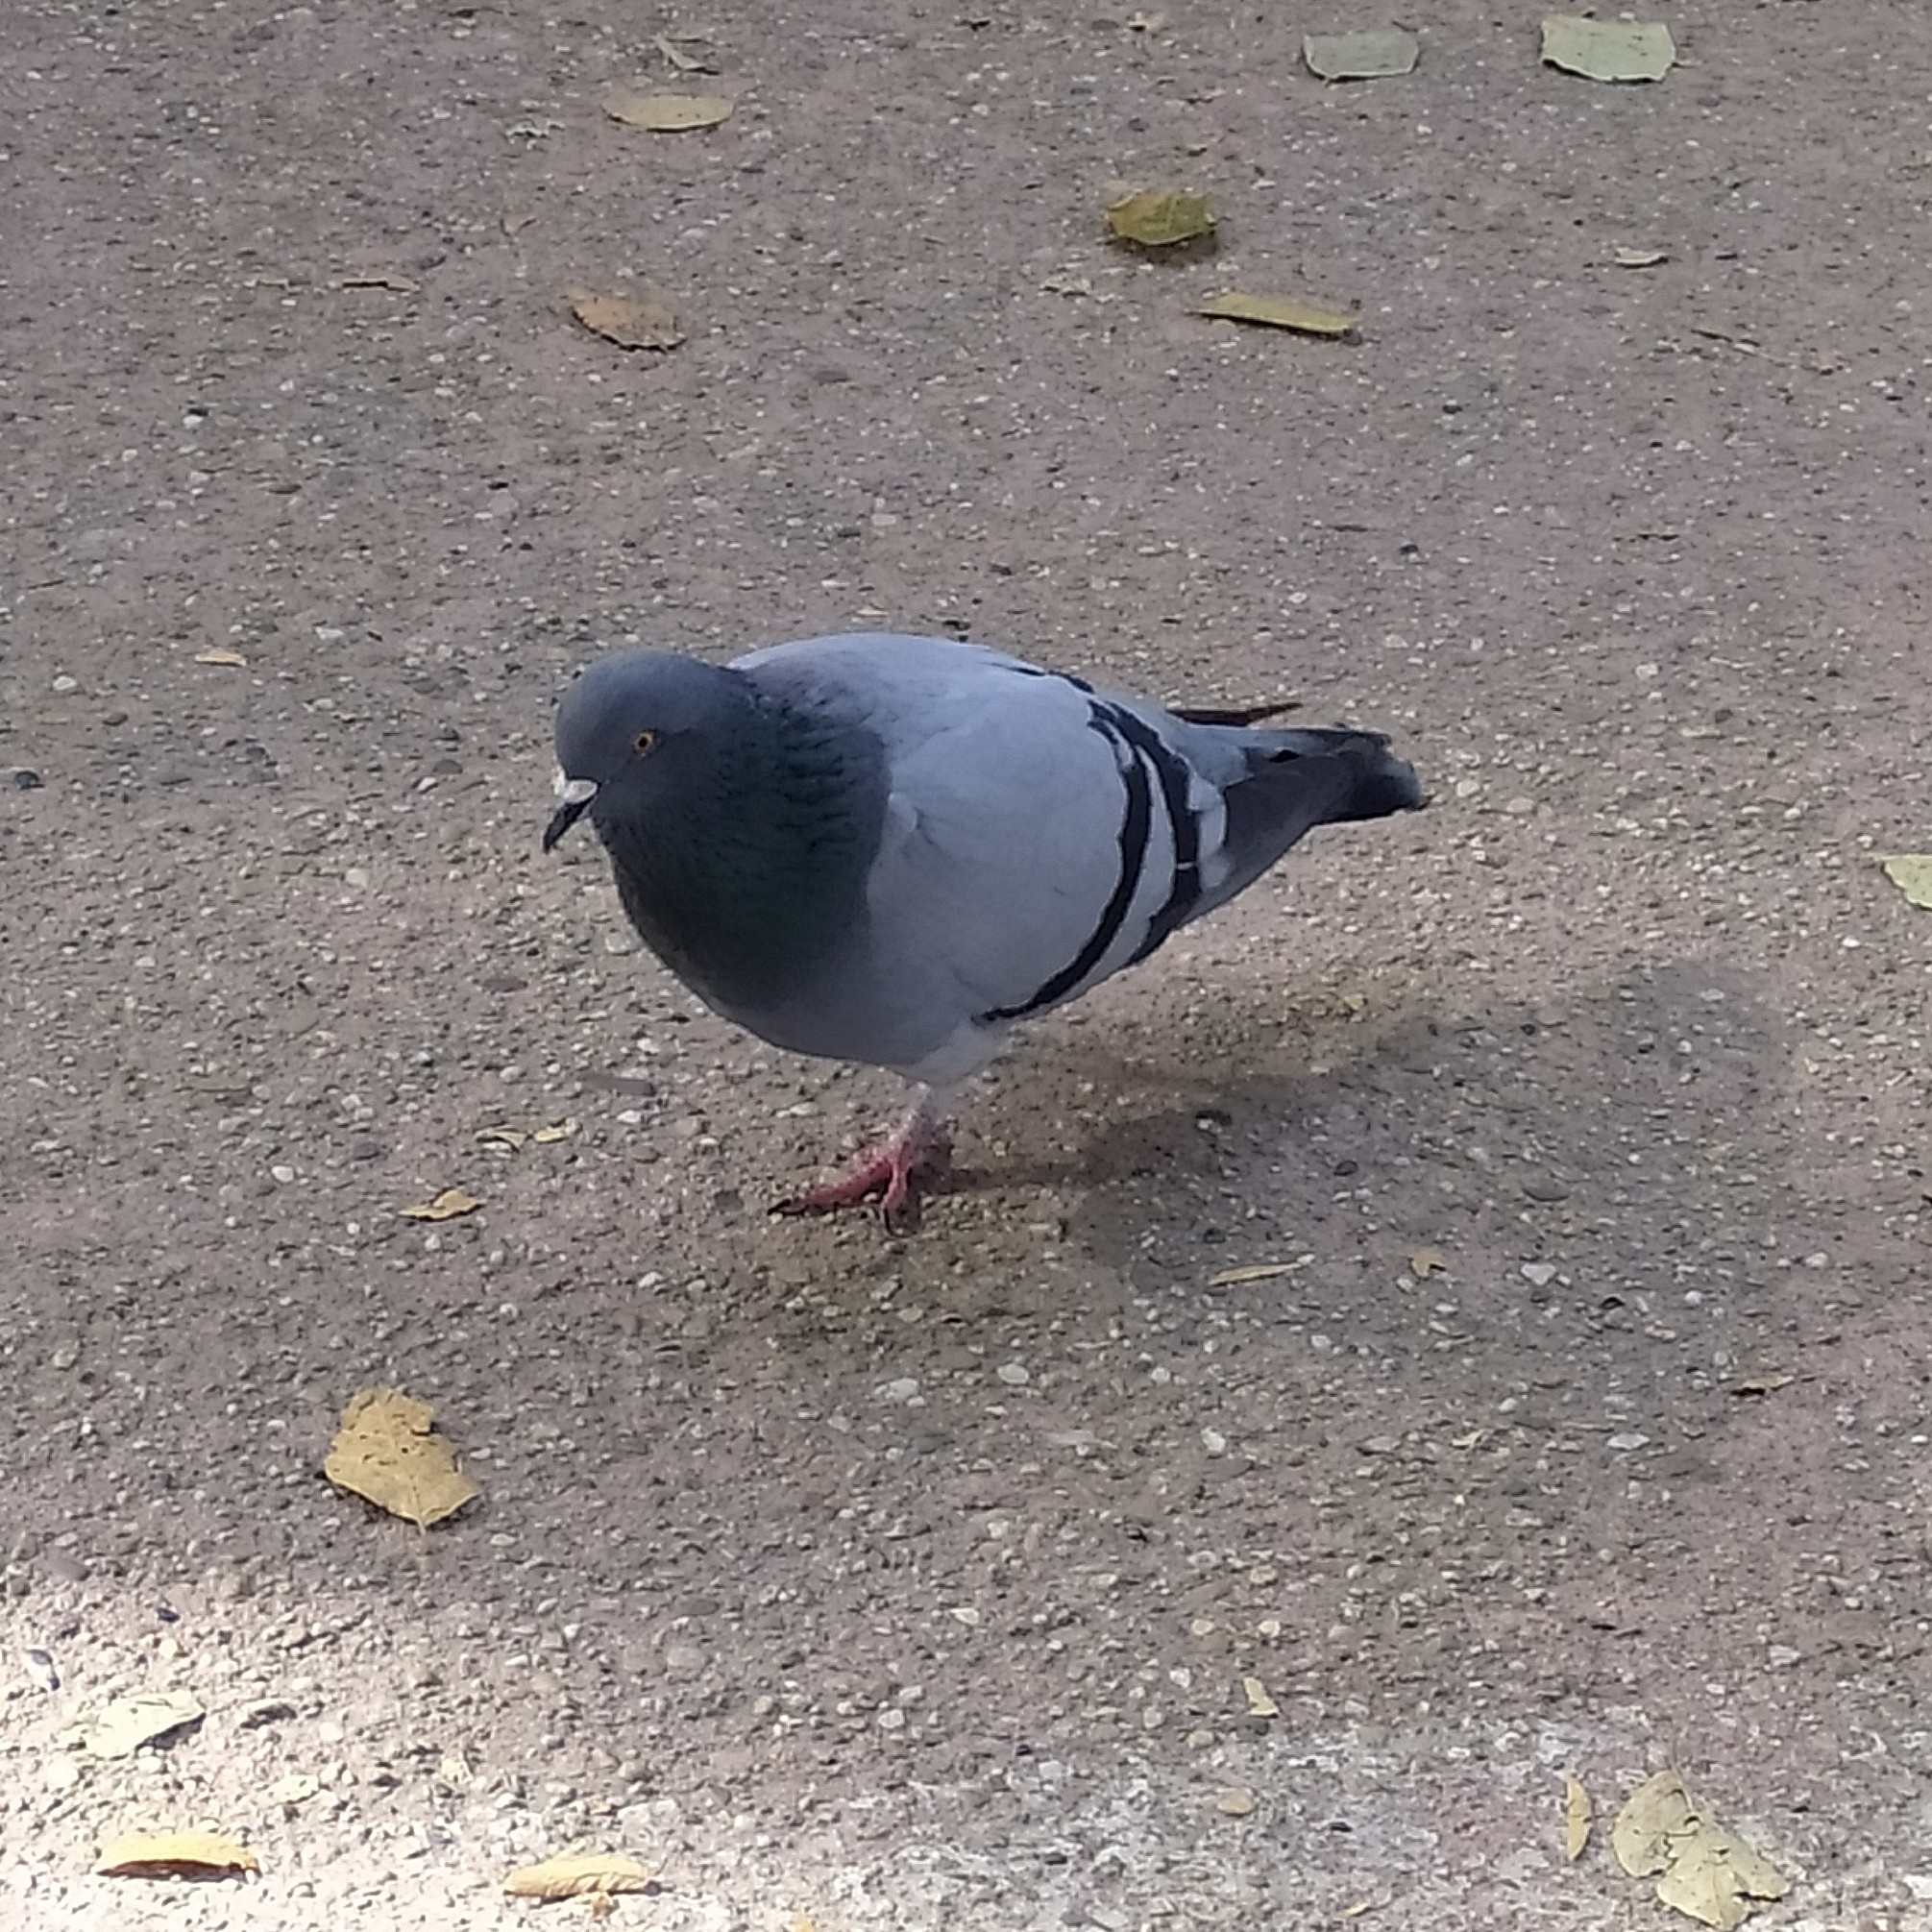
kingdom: Animalia
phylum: Chordata
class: Aves
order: Columbiformes
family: Columbidae
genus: Columba
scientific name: Columba livia
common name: Rock pigeon
